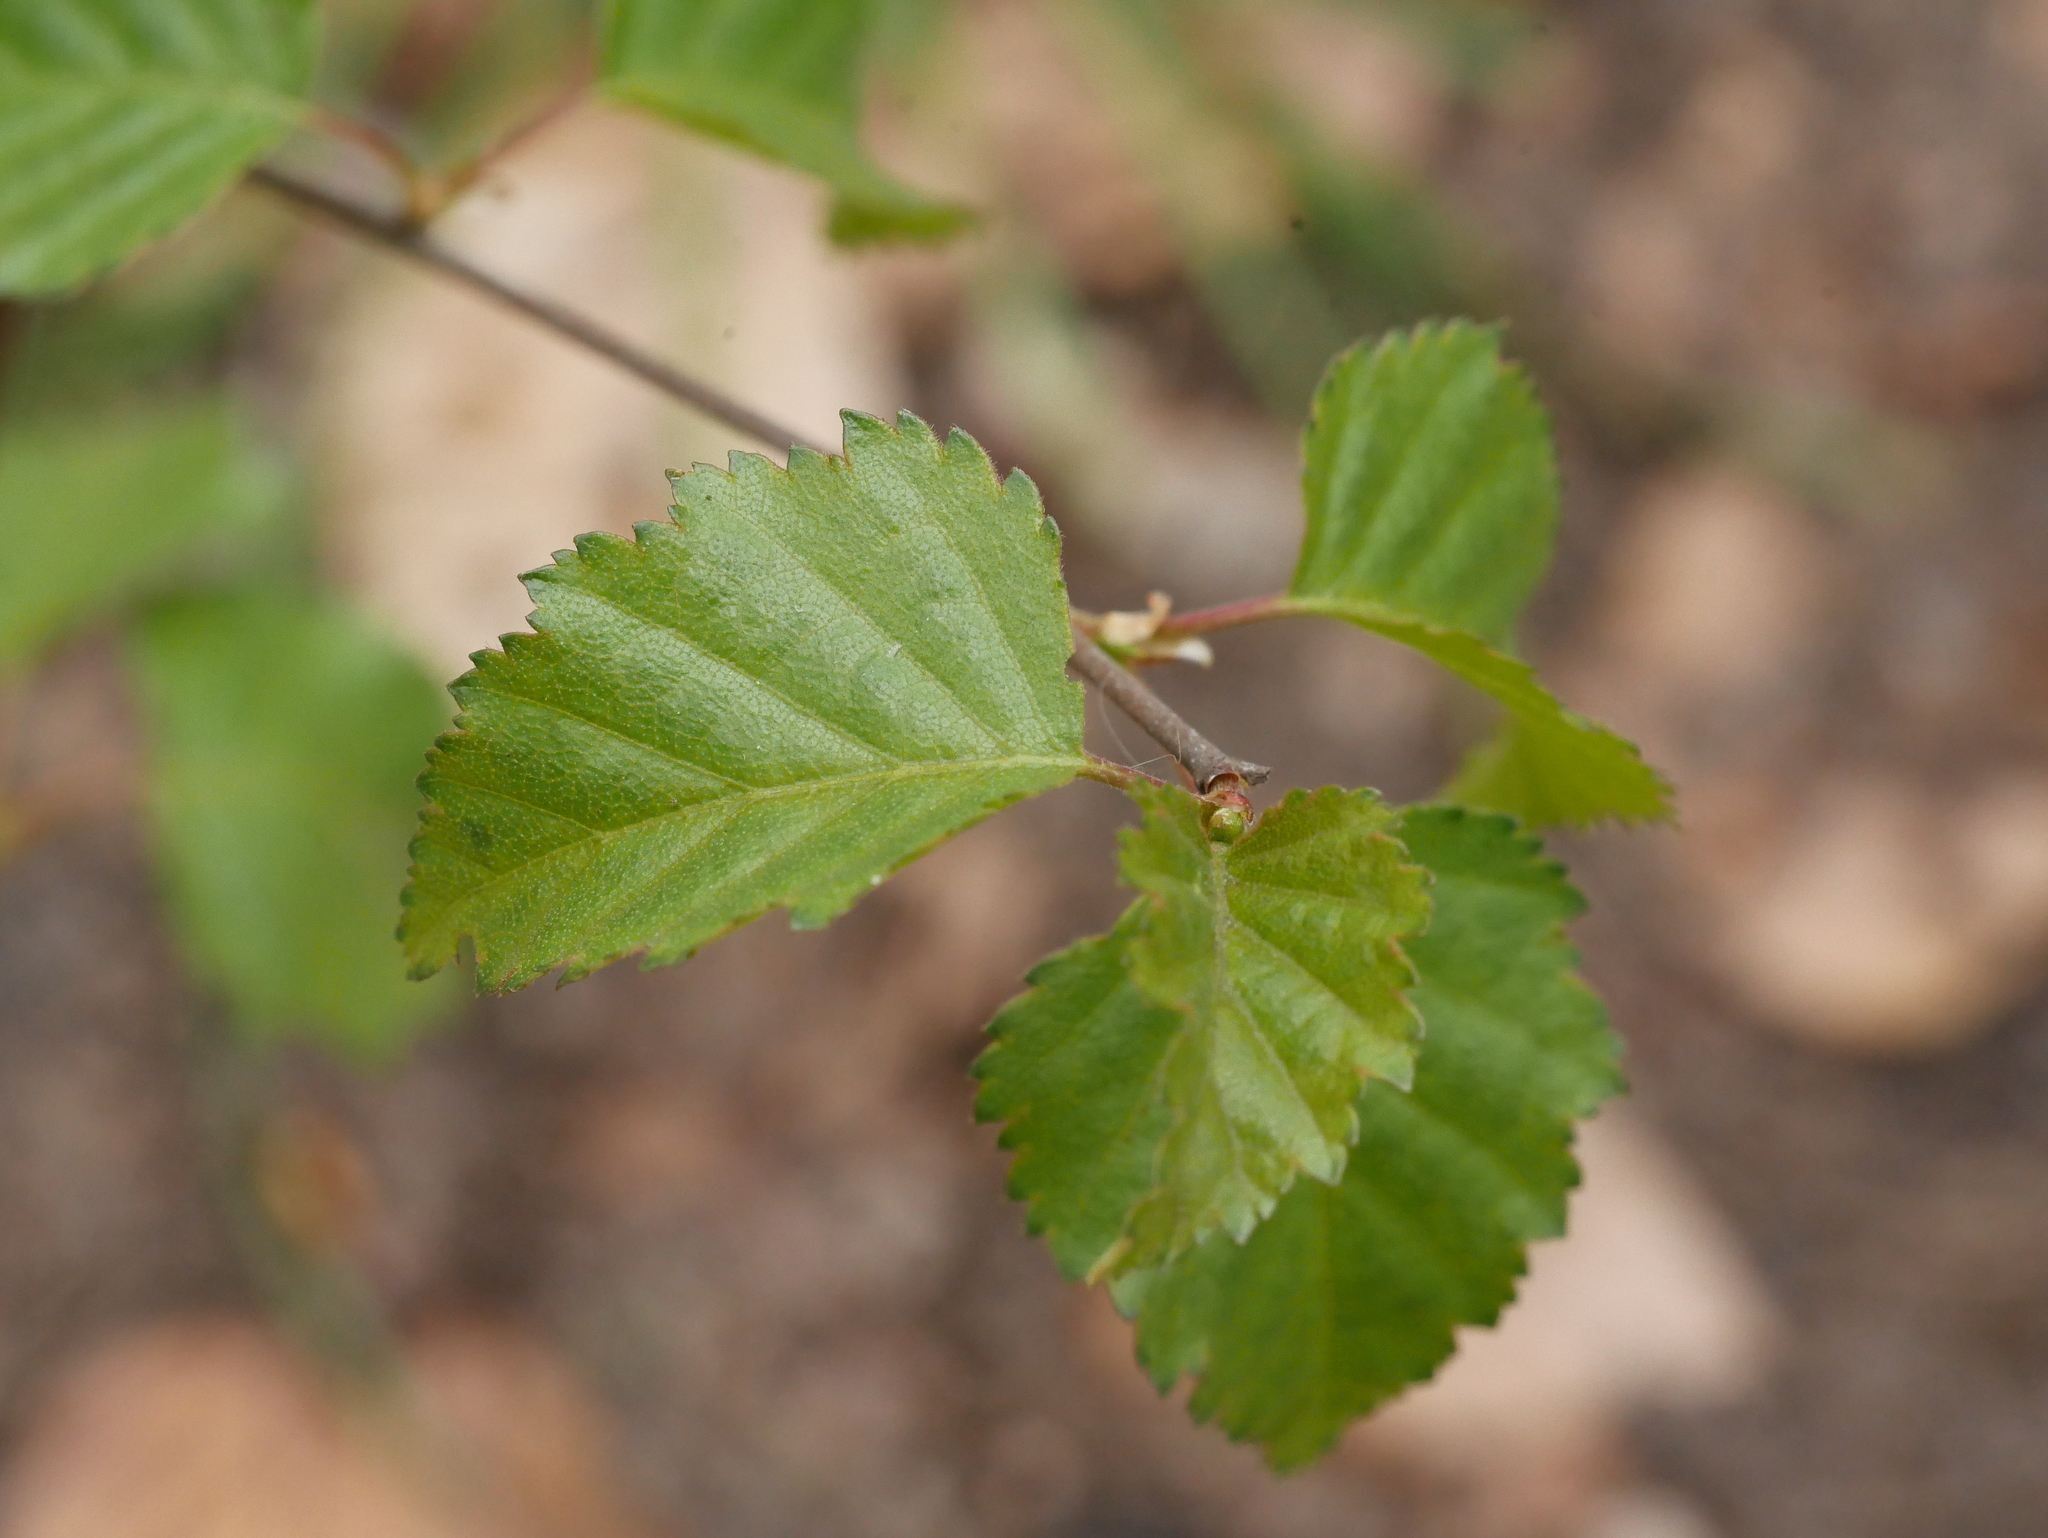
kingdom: Plantae
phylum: Tracheophyta
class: Magnoliopsida
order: Fagales
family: Betulaceae
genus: Betula
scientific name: Betula pendula
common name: Silver birch
